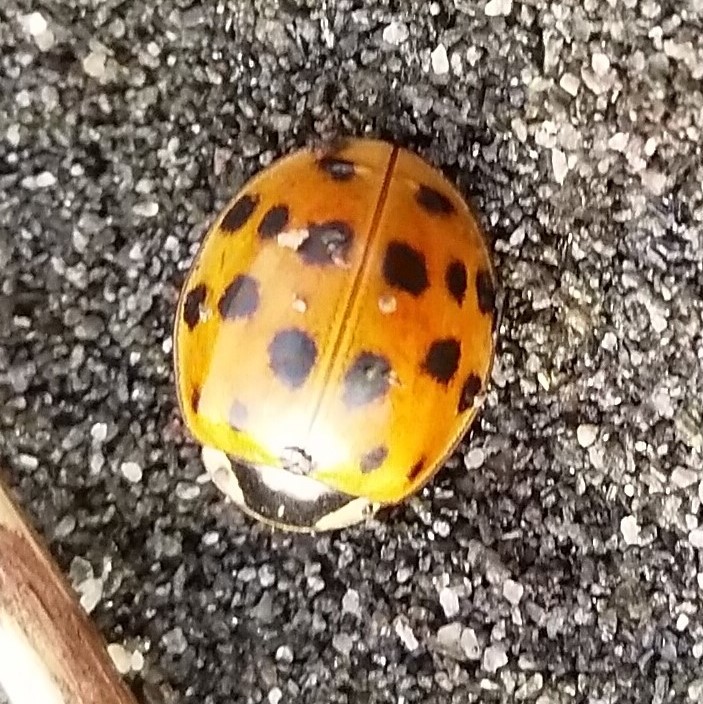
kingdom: Animalia
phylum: Arthropoda
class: Insecta
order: Coleoptera
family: Coccinellidae
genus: Harmonia
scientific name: Harmonia axyridis
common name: Harlequin ladybird
